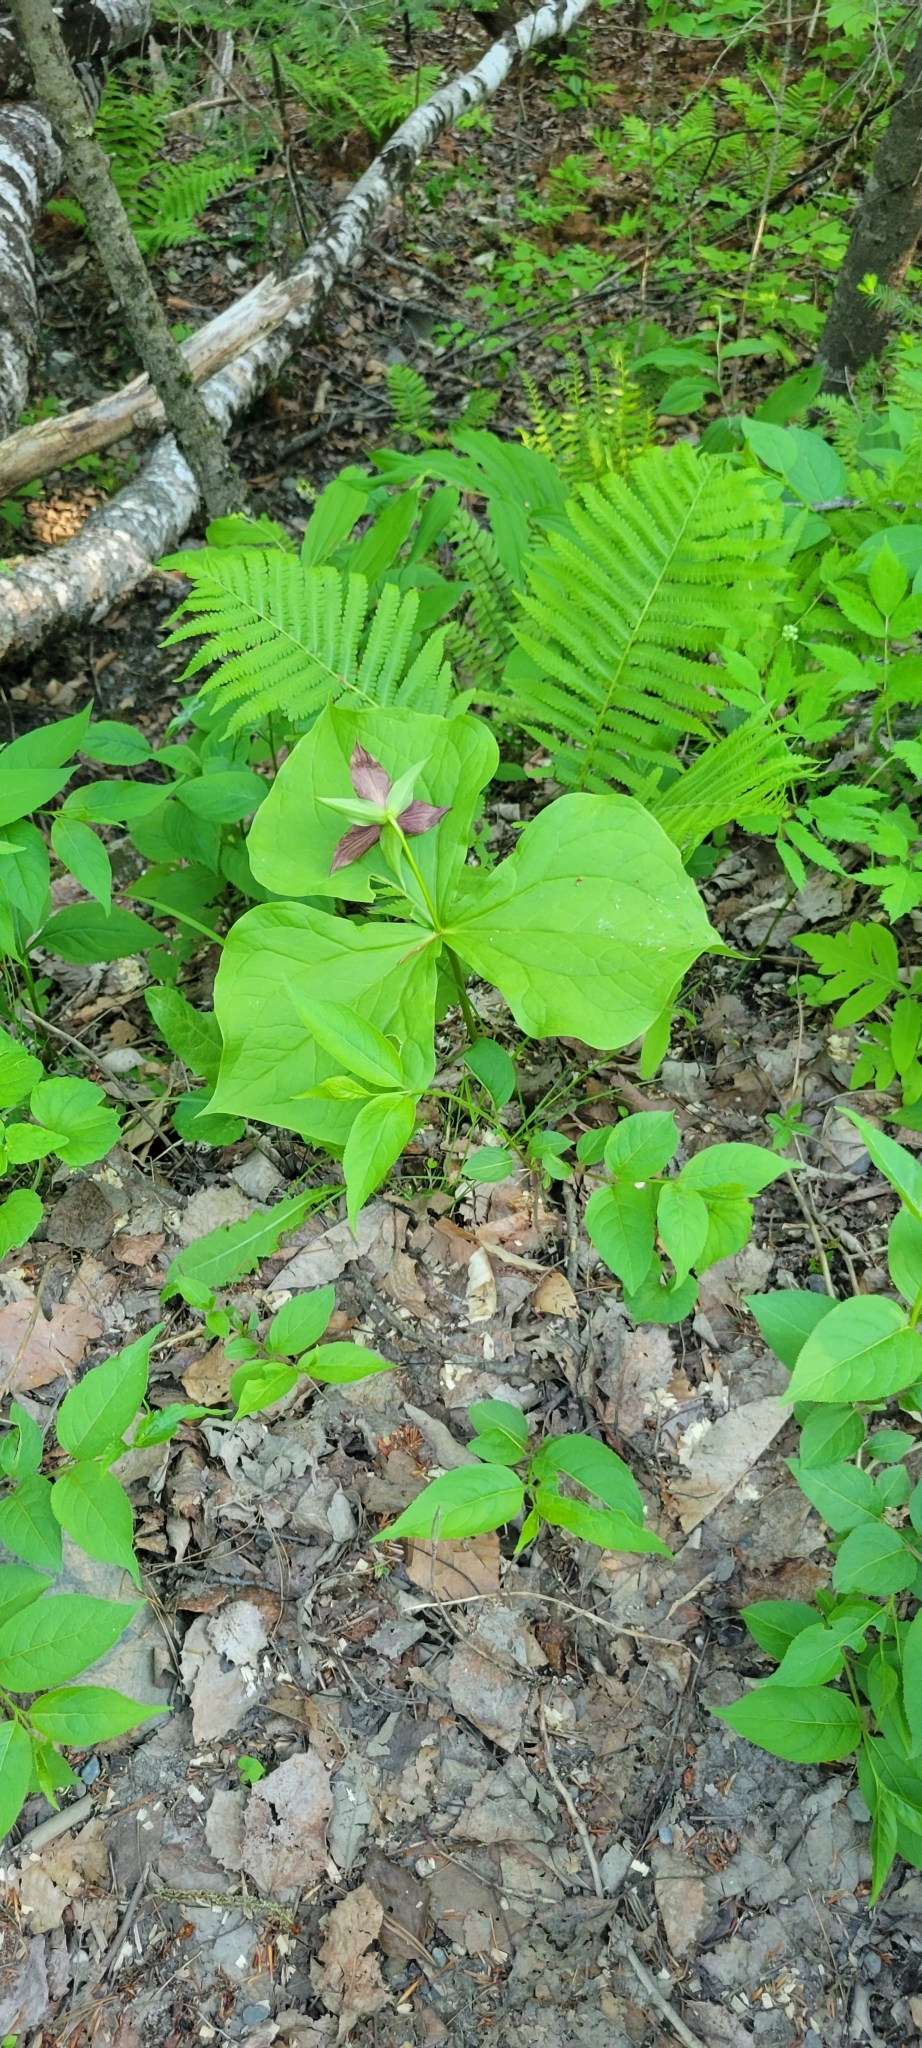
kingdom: Plantae
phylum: Tracheophyta
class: Liliopsida
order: Liliales
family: Melanthiaceae
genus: Trillium
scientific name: Trillium erectum
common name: Purple trillium
